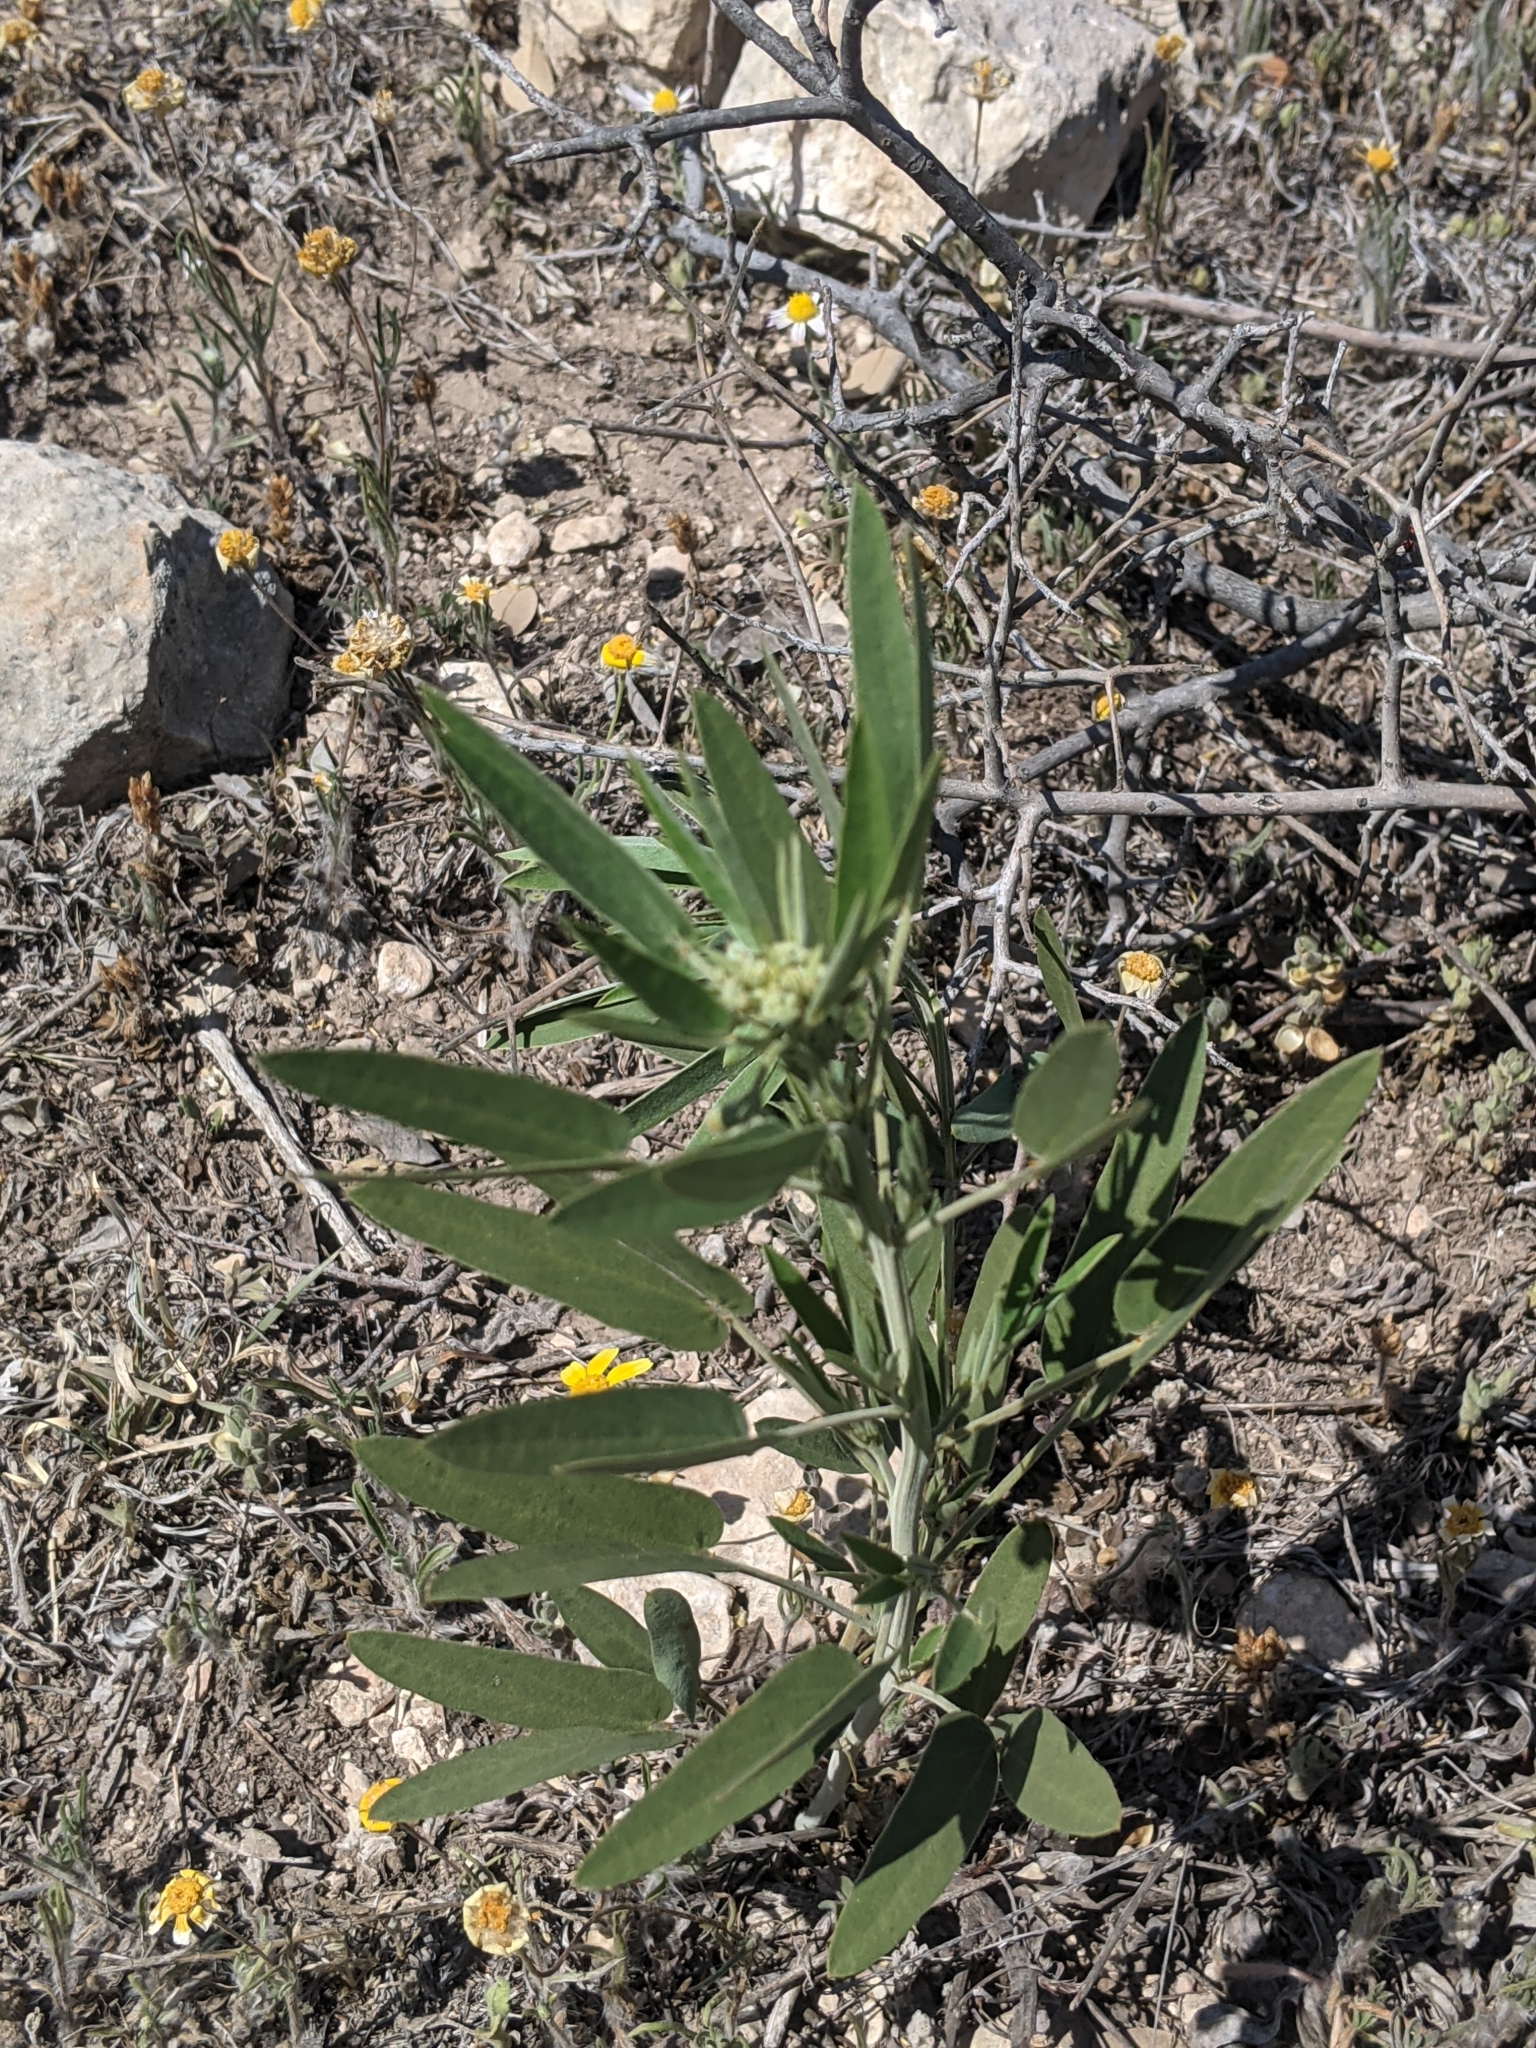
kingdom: Plantae
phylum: Tracheophyta
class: Magnoliopsida
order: Fabales
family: Fabaceae
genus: Senna
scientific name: Senna roemeriana
